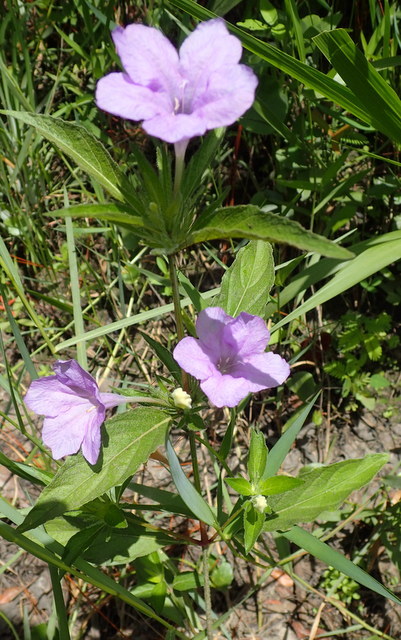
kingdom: Plantae
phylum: Tracheophyta
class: Magnoliopsida
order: Lamiales
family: Acanthaceae
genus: Ruellia
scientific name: Ruellia caroliniensis
